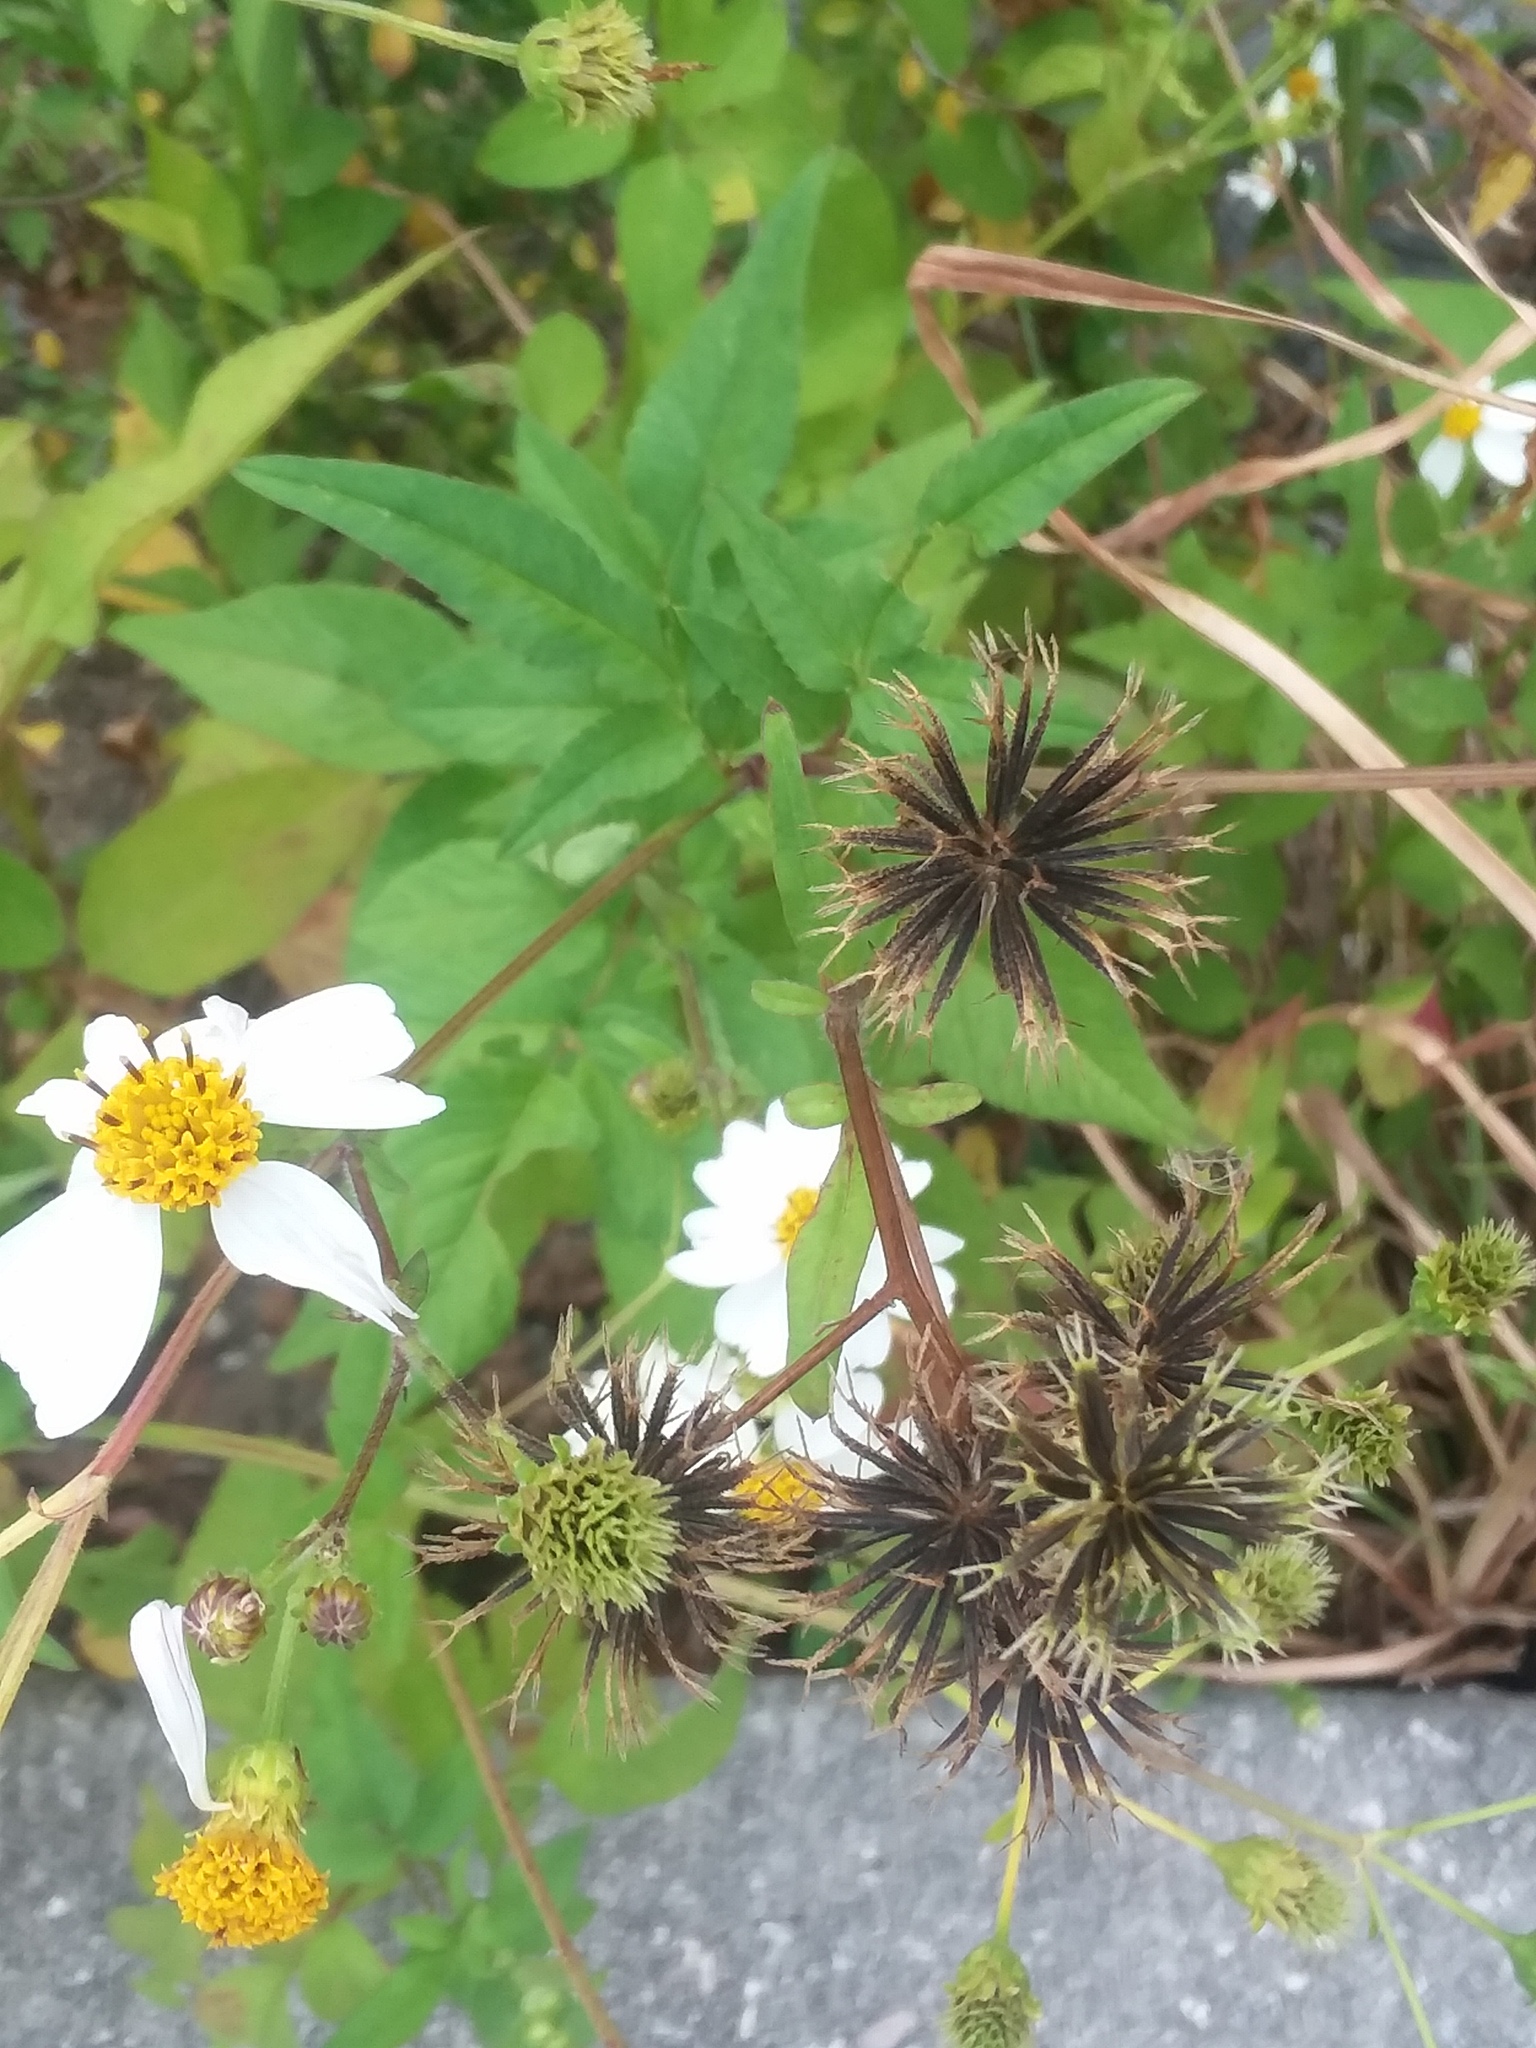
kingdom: Plantae
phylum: Tracheophyta
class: Magnoliopsida
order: Asterales
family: Asteraceae
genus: Bidens
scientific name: Bidens alba
